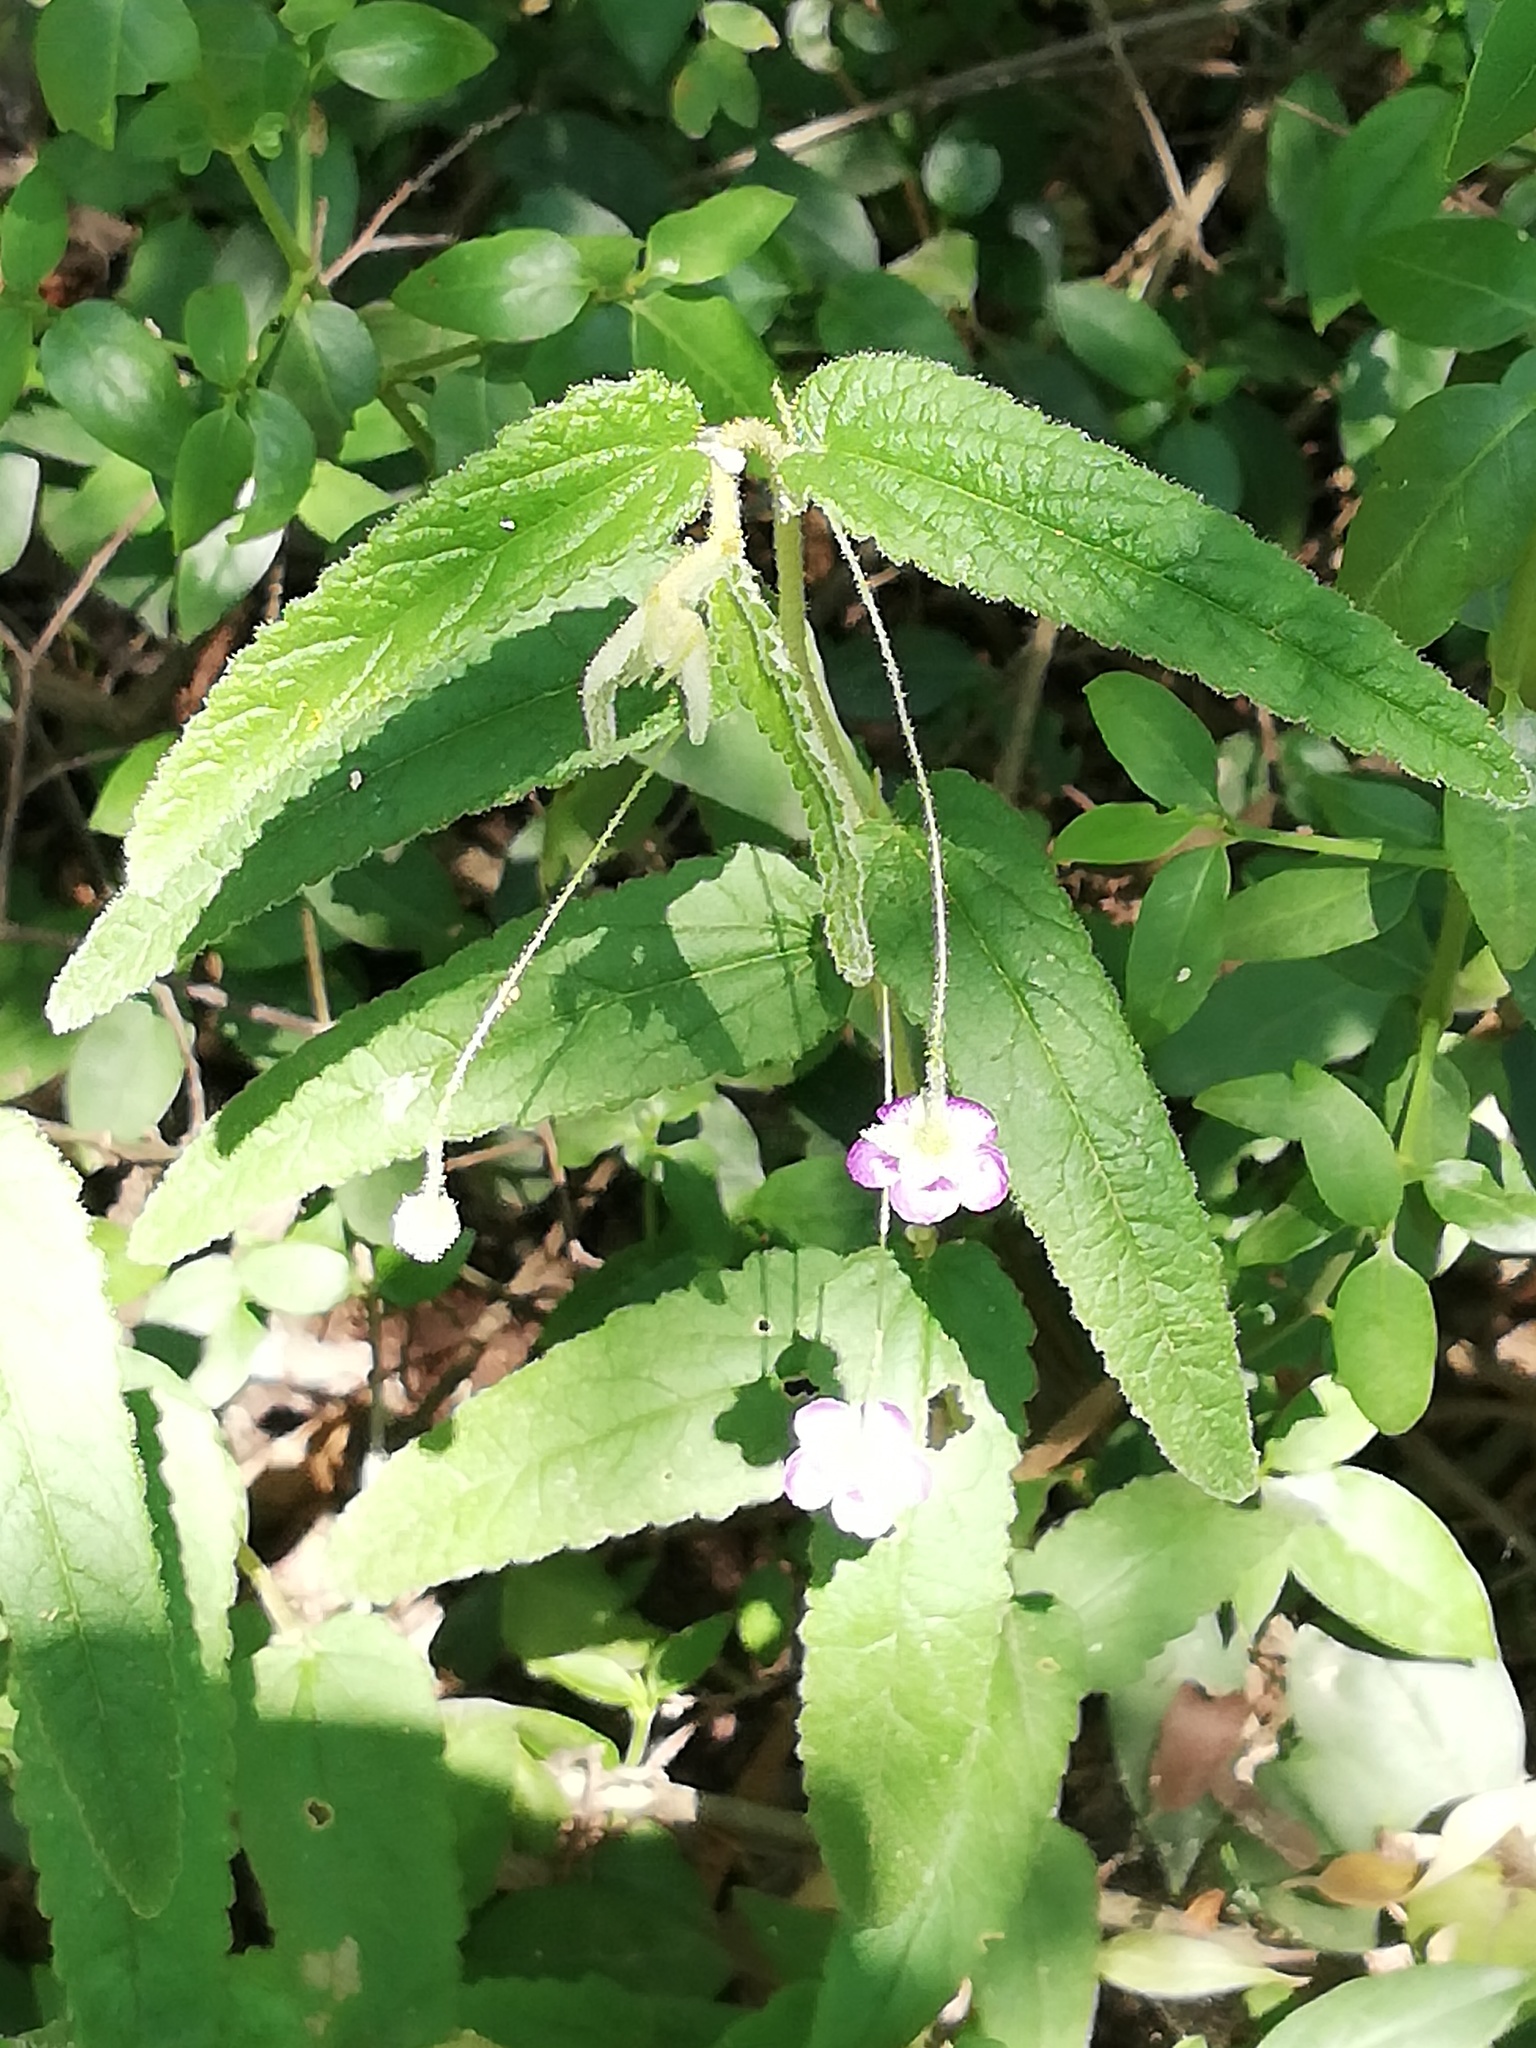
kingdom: Plantae
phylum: Tracheophyta
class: Magnoliopsida
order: Malvales
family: Malvaceae
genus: Meximalva
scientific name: Meximalva filipes
